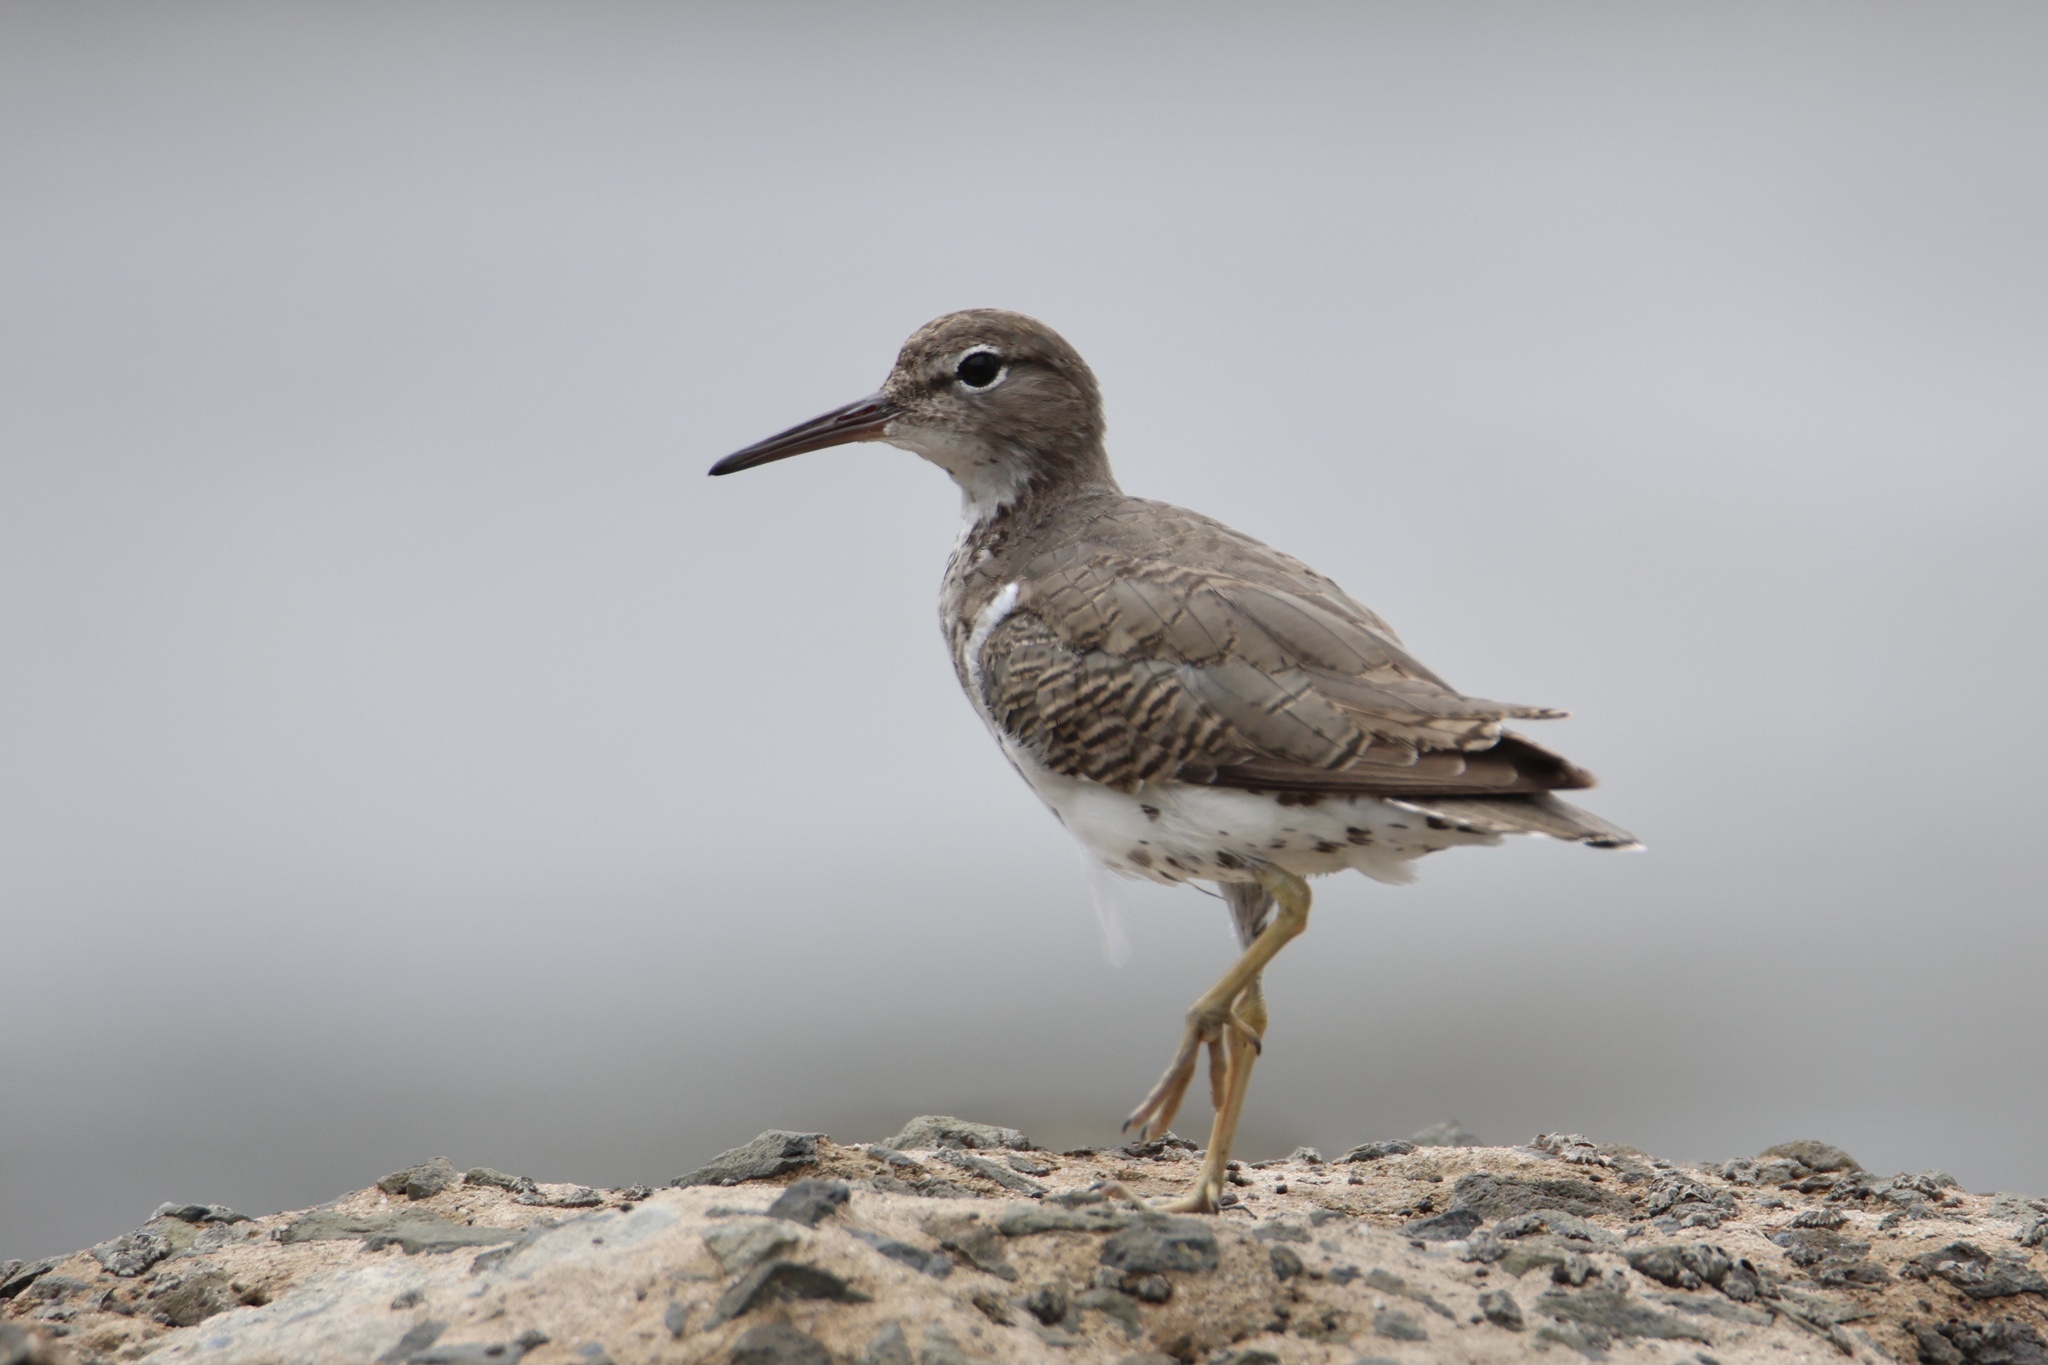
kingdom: Animalia
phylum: Chordata
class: Aves
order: Charadriiformes
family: Scolopacidae
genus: Actitis
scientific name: Actitis macularius
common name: Spotted sandpiper
